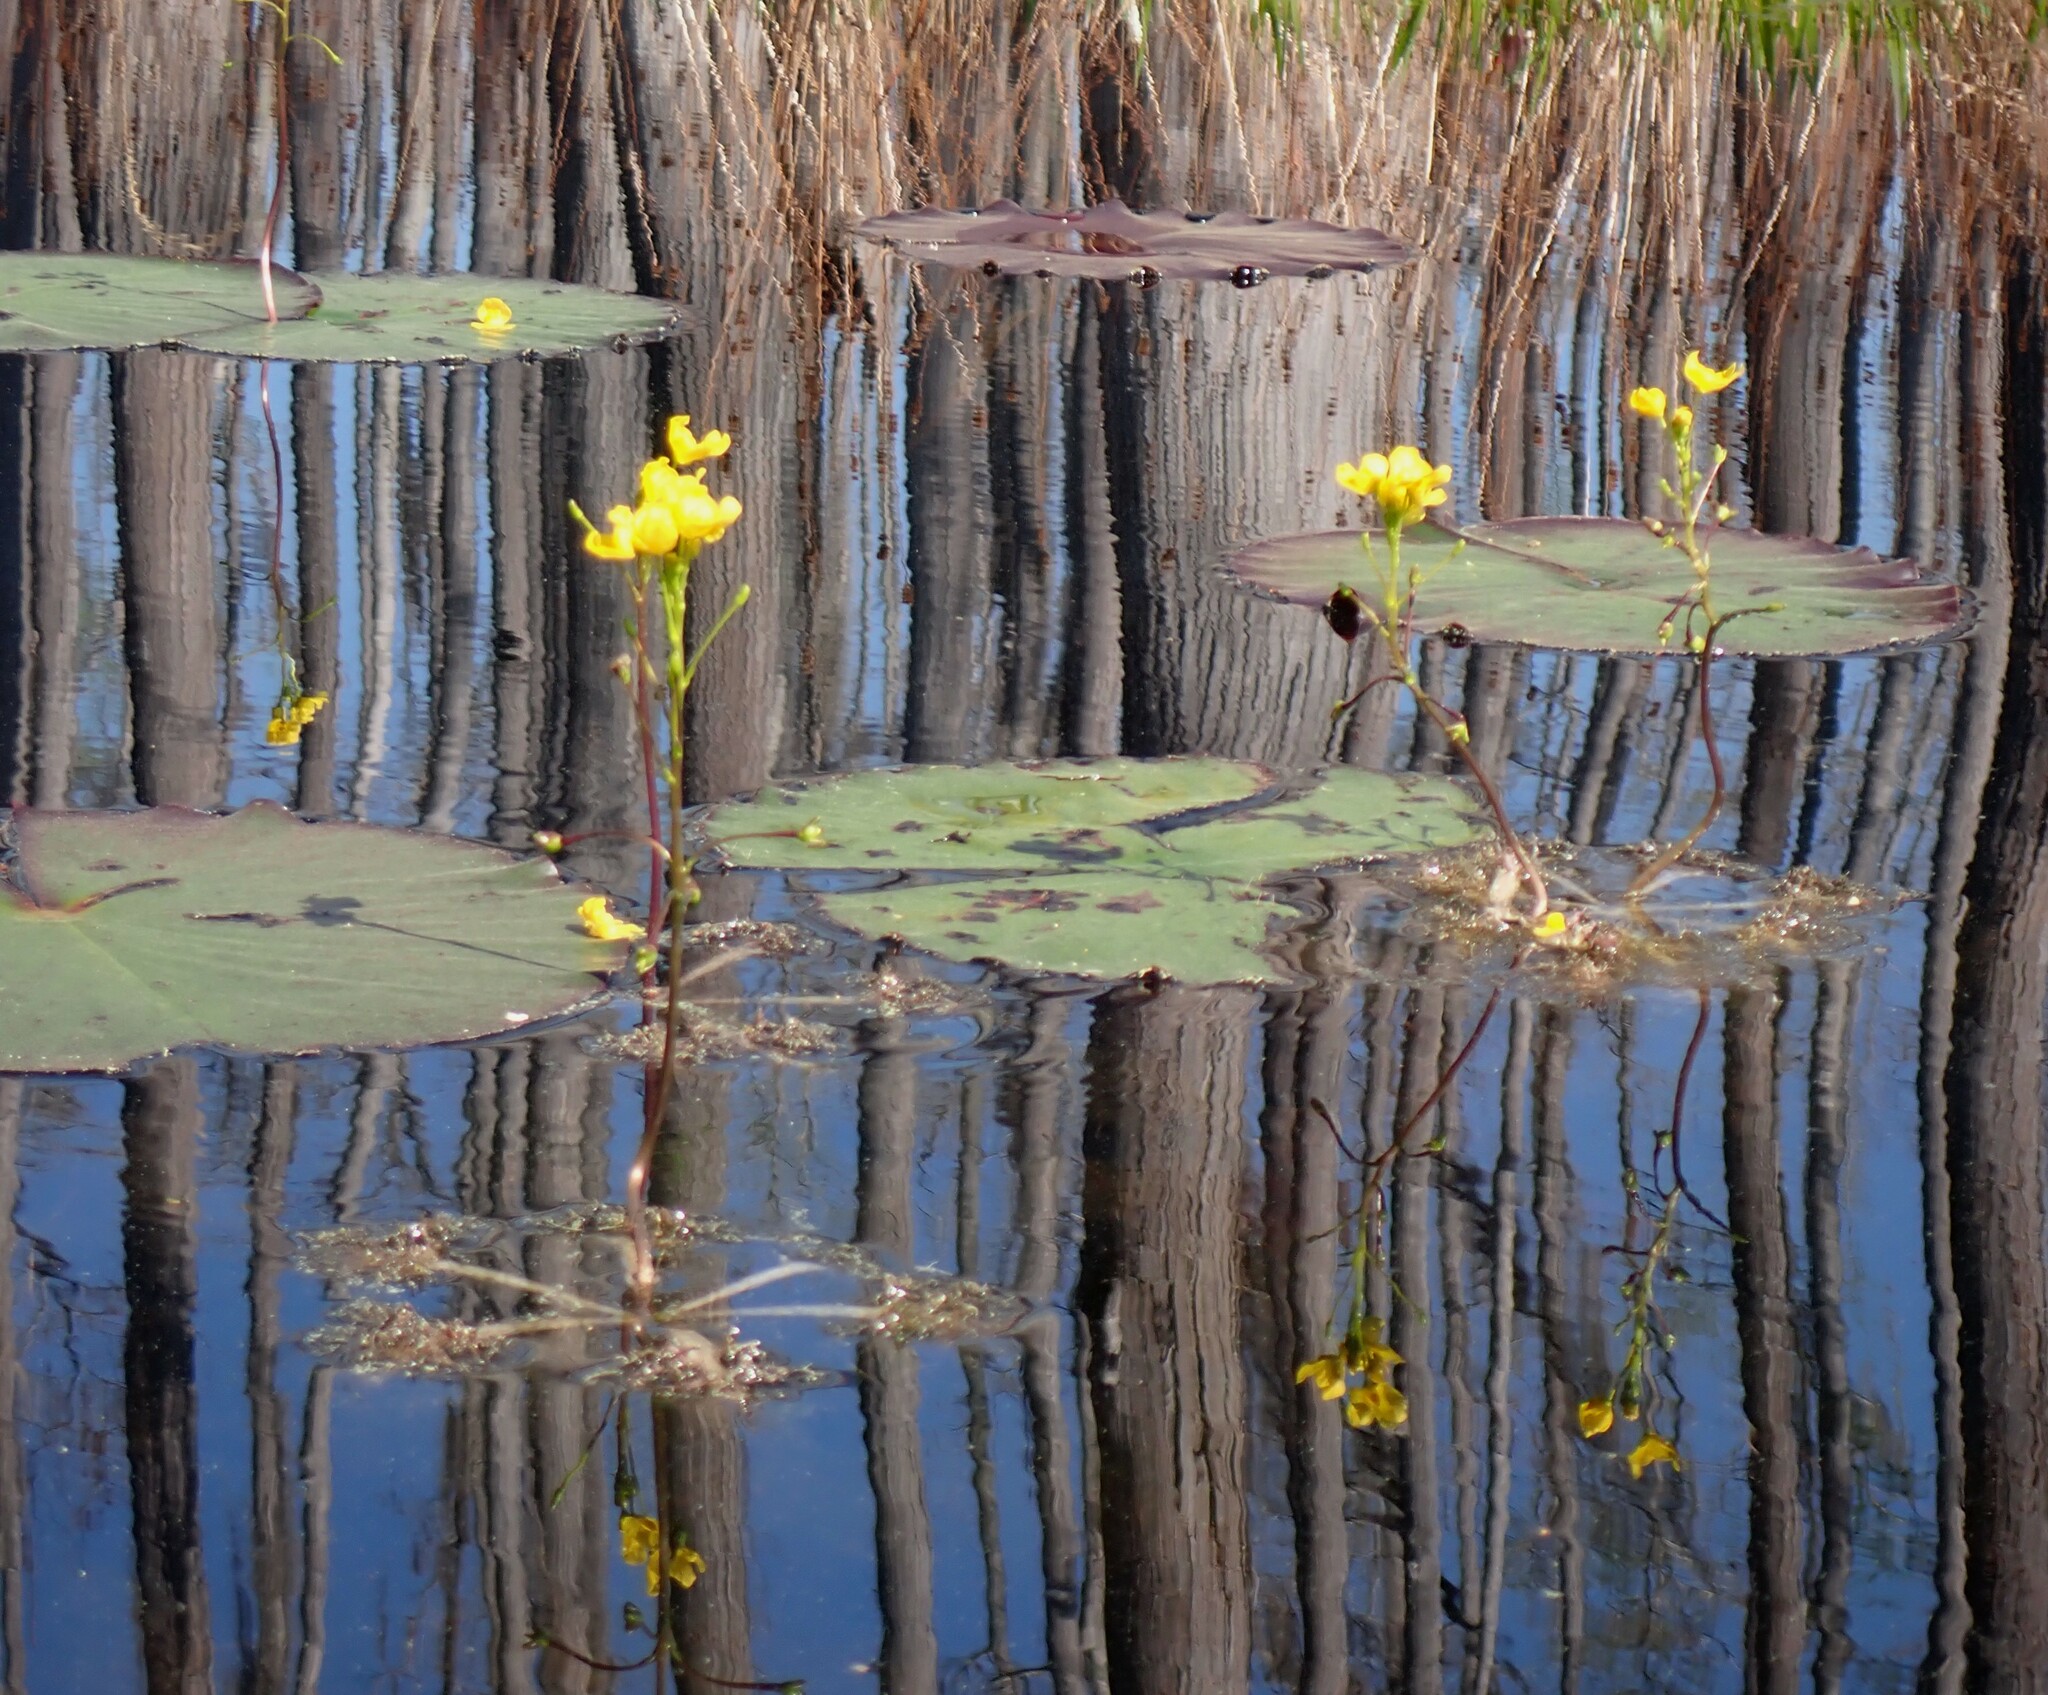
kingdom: Plantae
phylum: Tracheophyta
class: Magnoliopsida
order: Lamiales
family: Lentibulariaceae
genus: Utricularia
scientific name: Utricularia inflata
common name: Floating bladderwort
